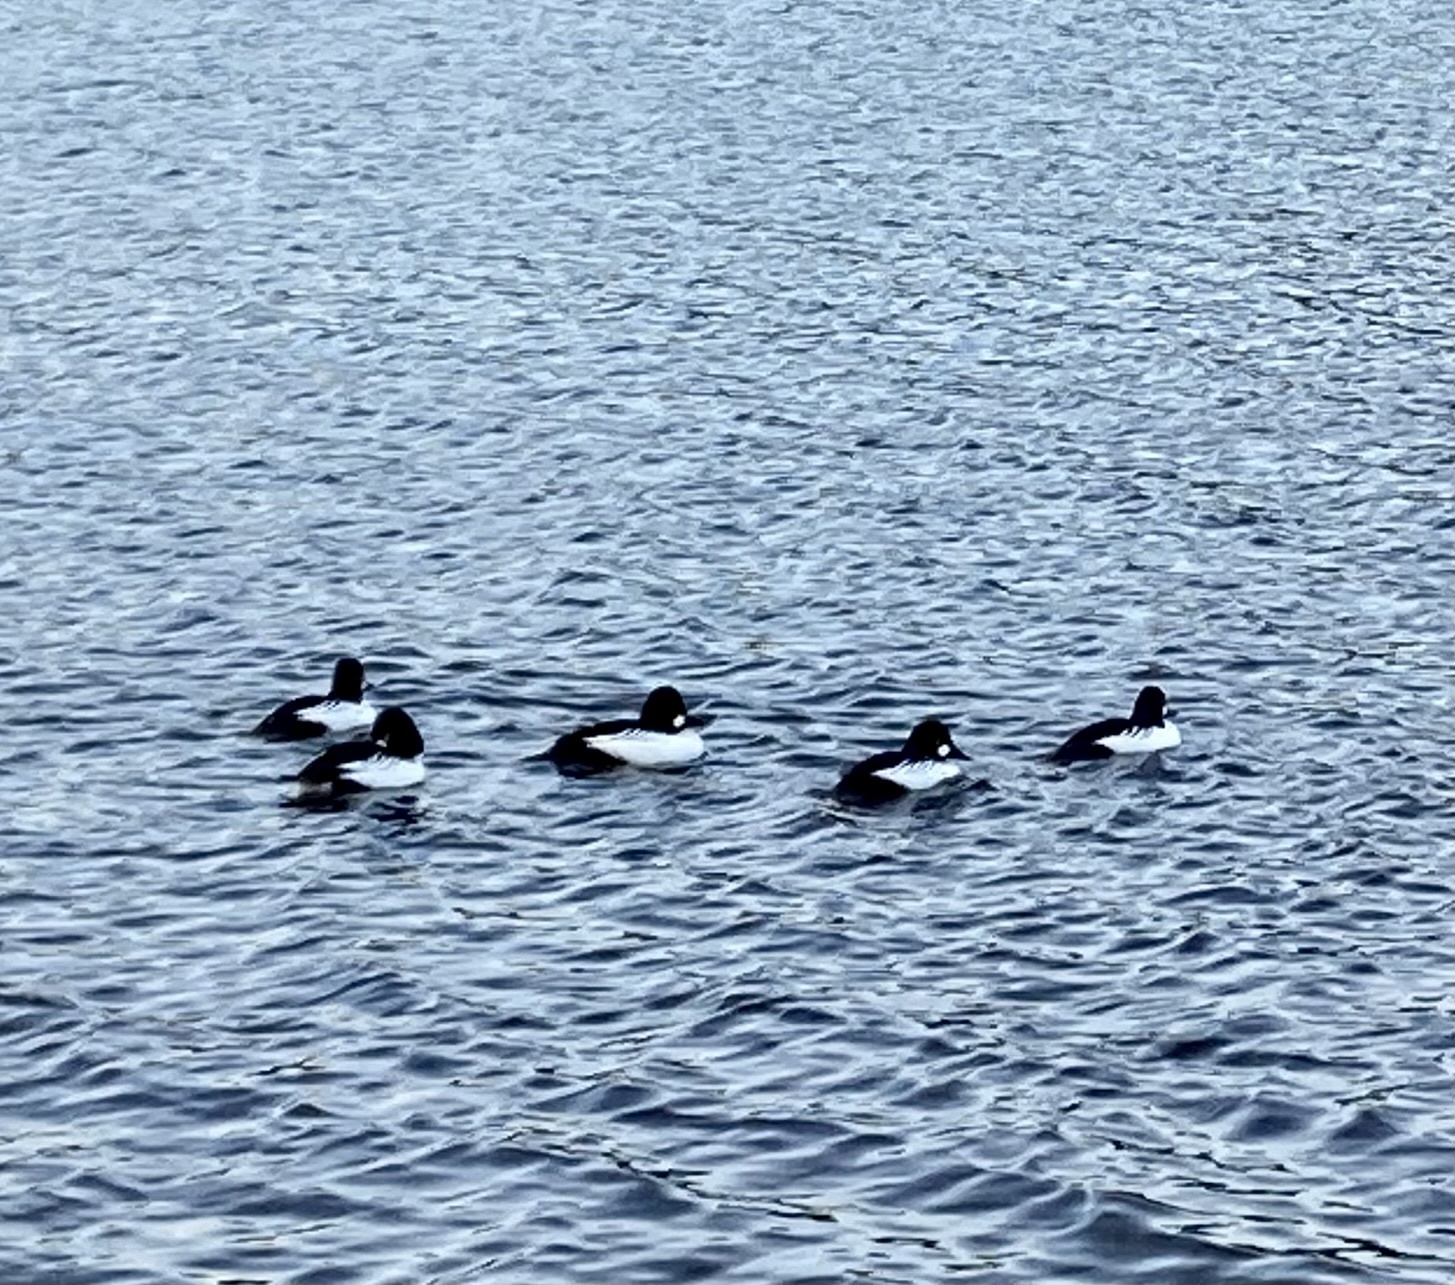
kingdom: Animalia
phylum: Chordata
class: Aves
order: Anseriformes
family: Anatidae
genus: Bucephala
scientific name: Bucephala clangula
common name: Common goldeneye
